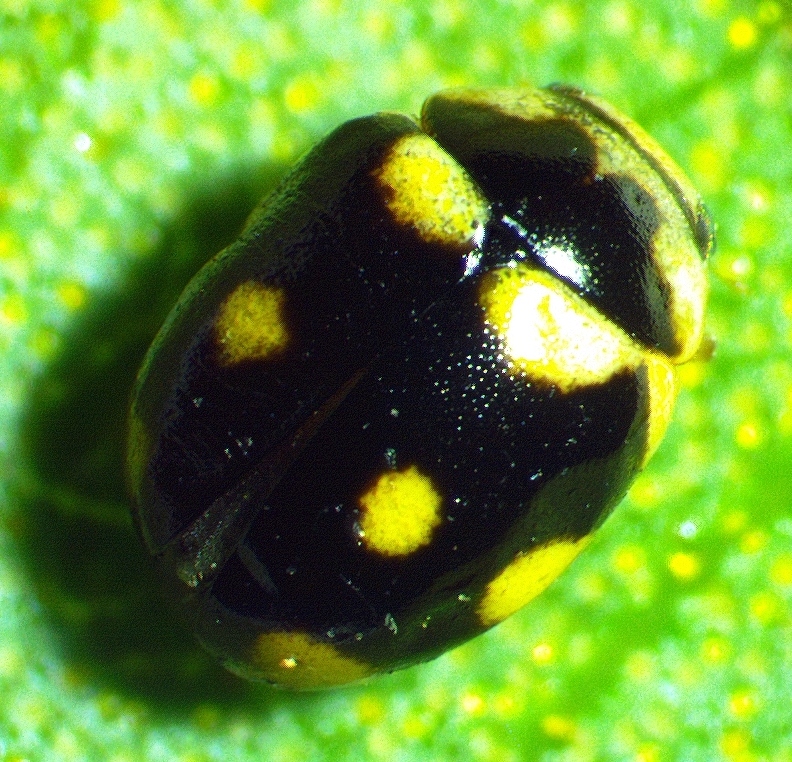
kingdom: Animalia
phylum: Arthropoda
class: Insecta
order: Coleoptera
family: Coccinellidae
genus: Brachiacantha
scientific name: Brachiacantha decempustulata
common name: Ten-spotted spurleg lady beetle
